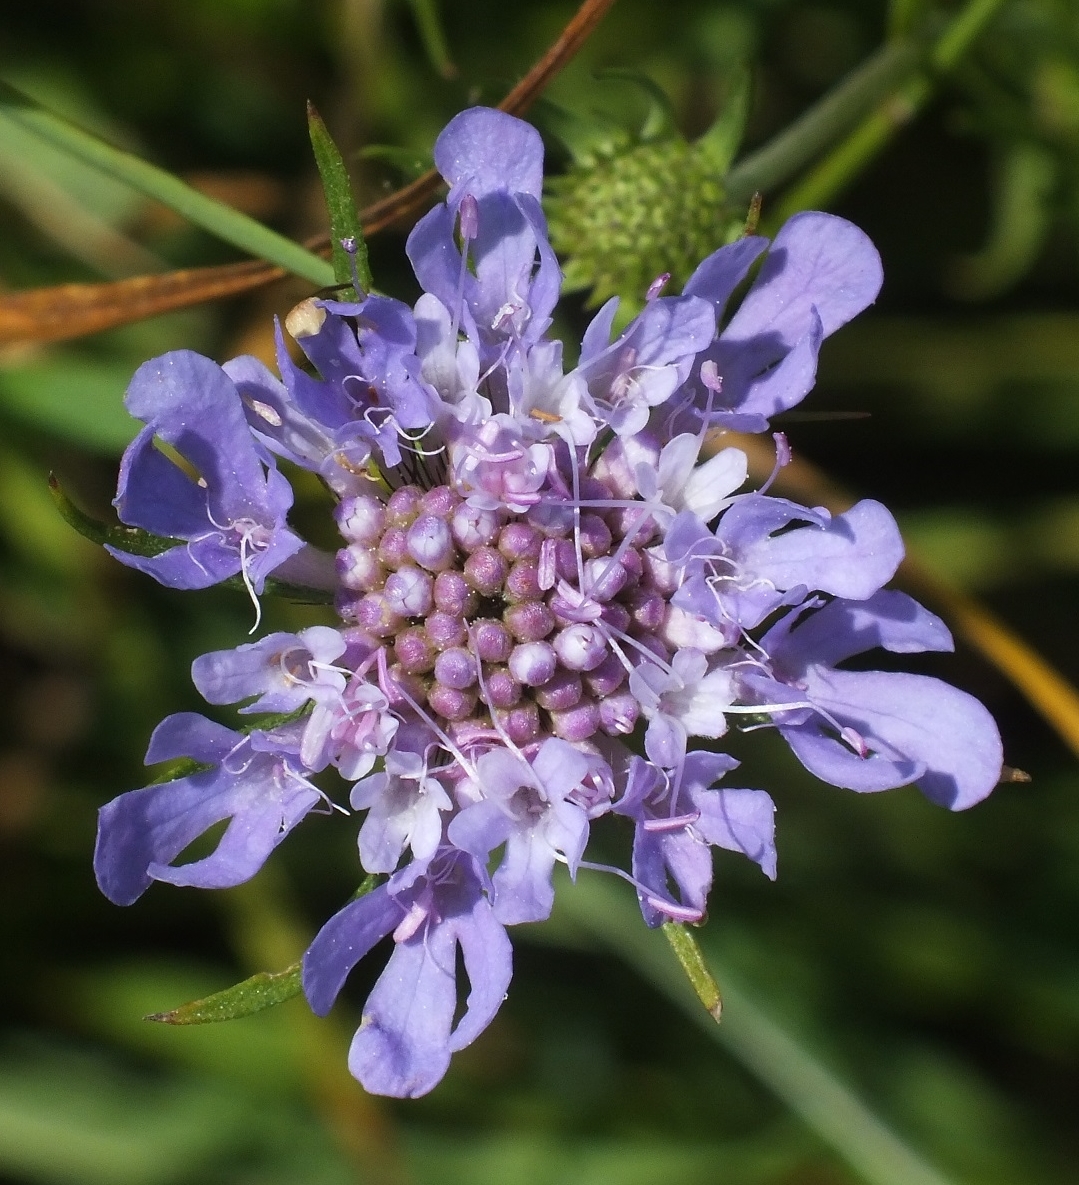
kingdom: Plantae
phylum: Tracheophyta
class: Magnoliopsida
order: Dipsacales
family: Caprifoliaceae
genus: Scabiosa
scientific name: Scabiosa columbaria
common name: Small scabious
